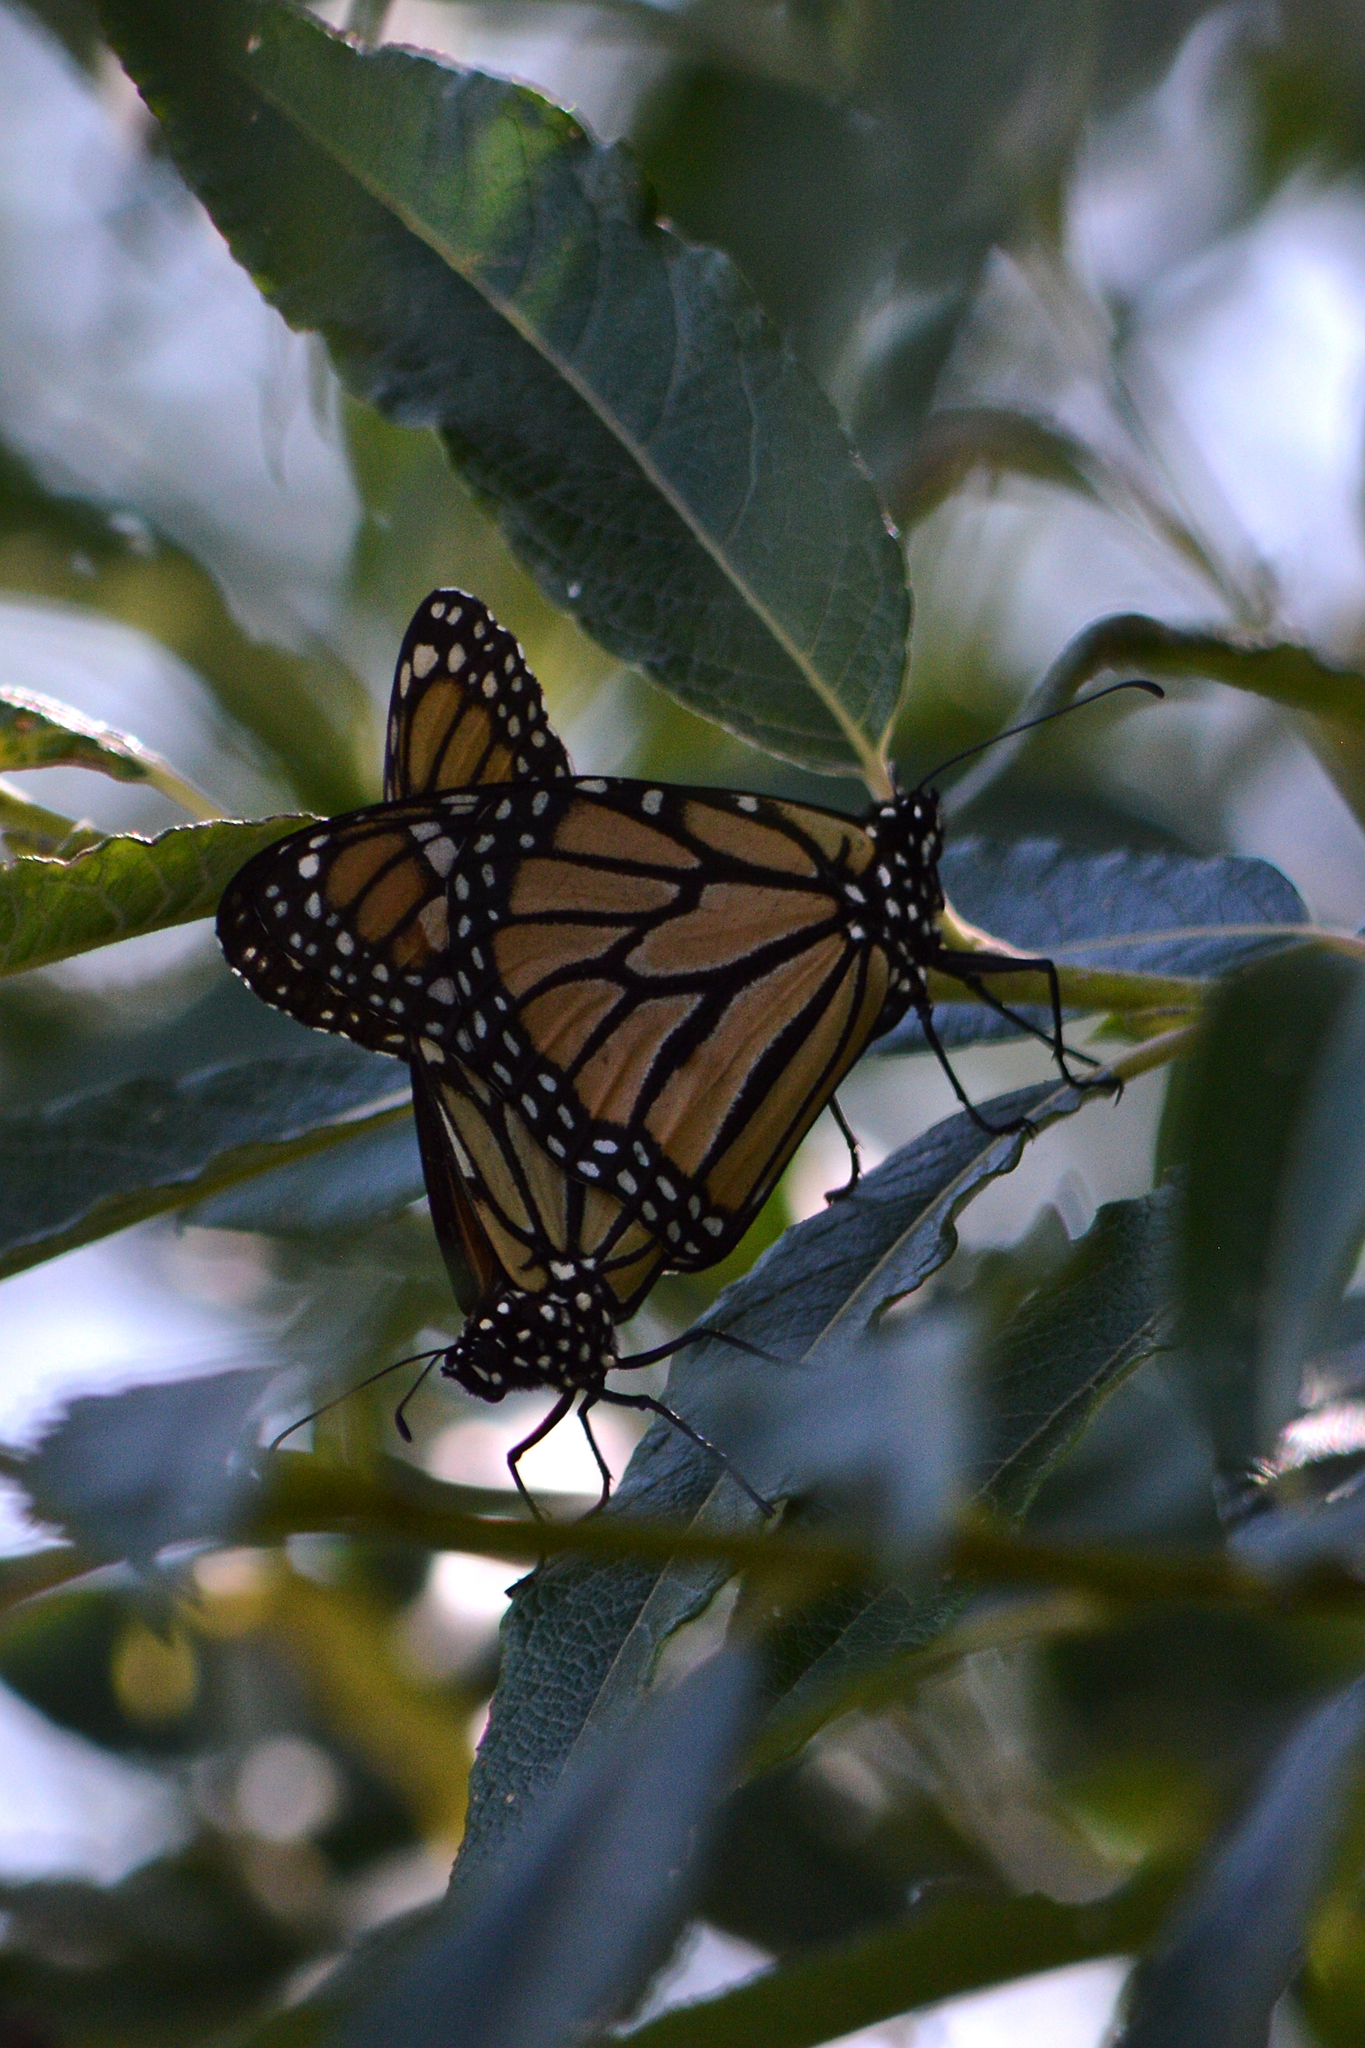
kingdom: Animalia
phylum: Arthropoda
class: Insecta
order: Lepidoptera
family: Nymphalidae
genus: Danaus
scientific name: Danaus plexippus
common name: Monarch
